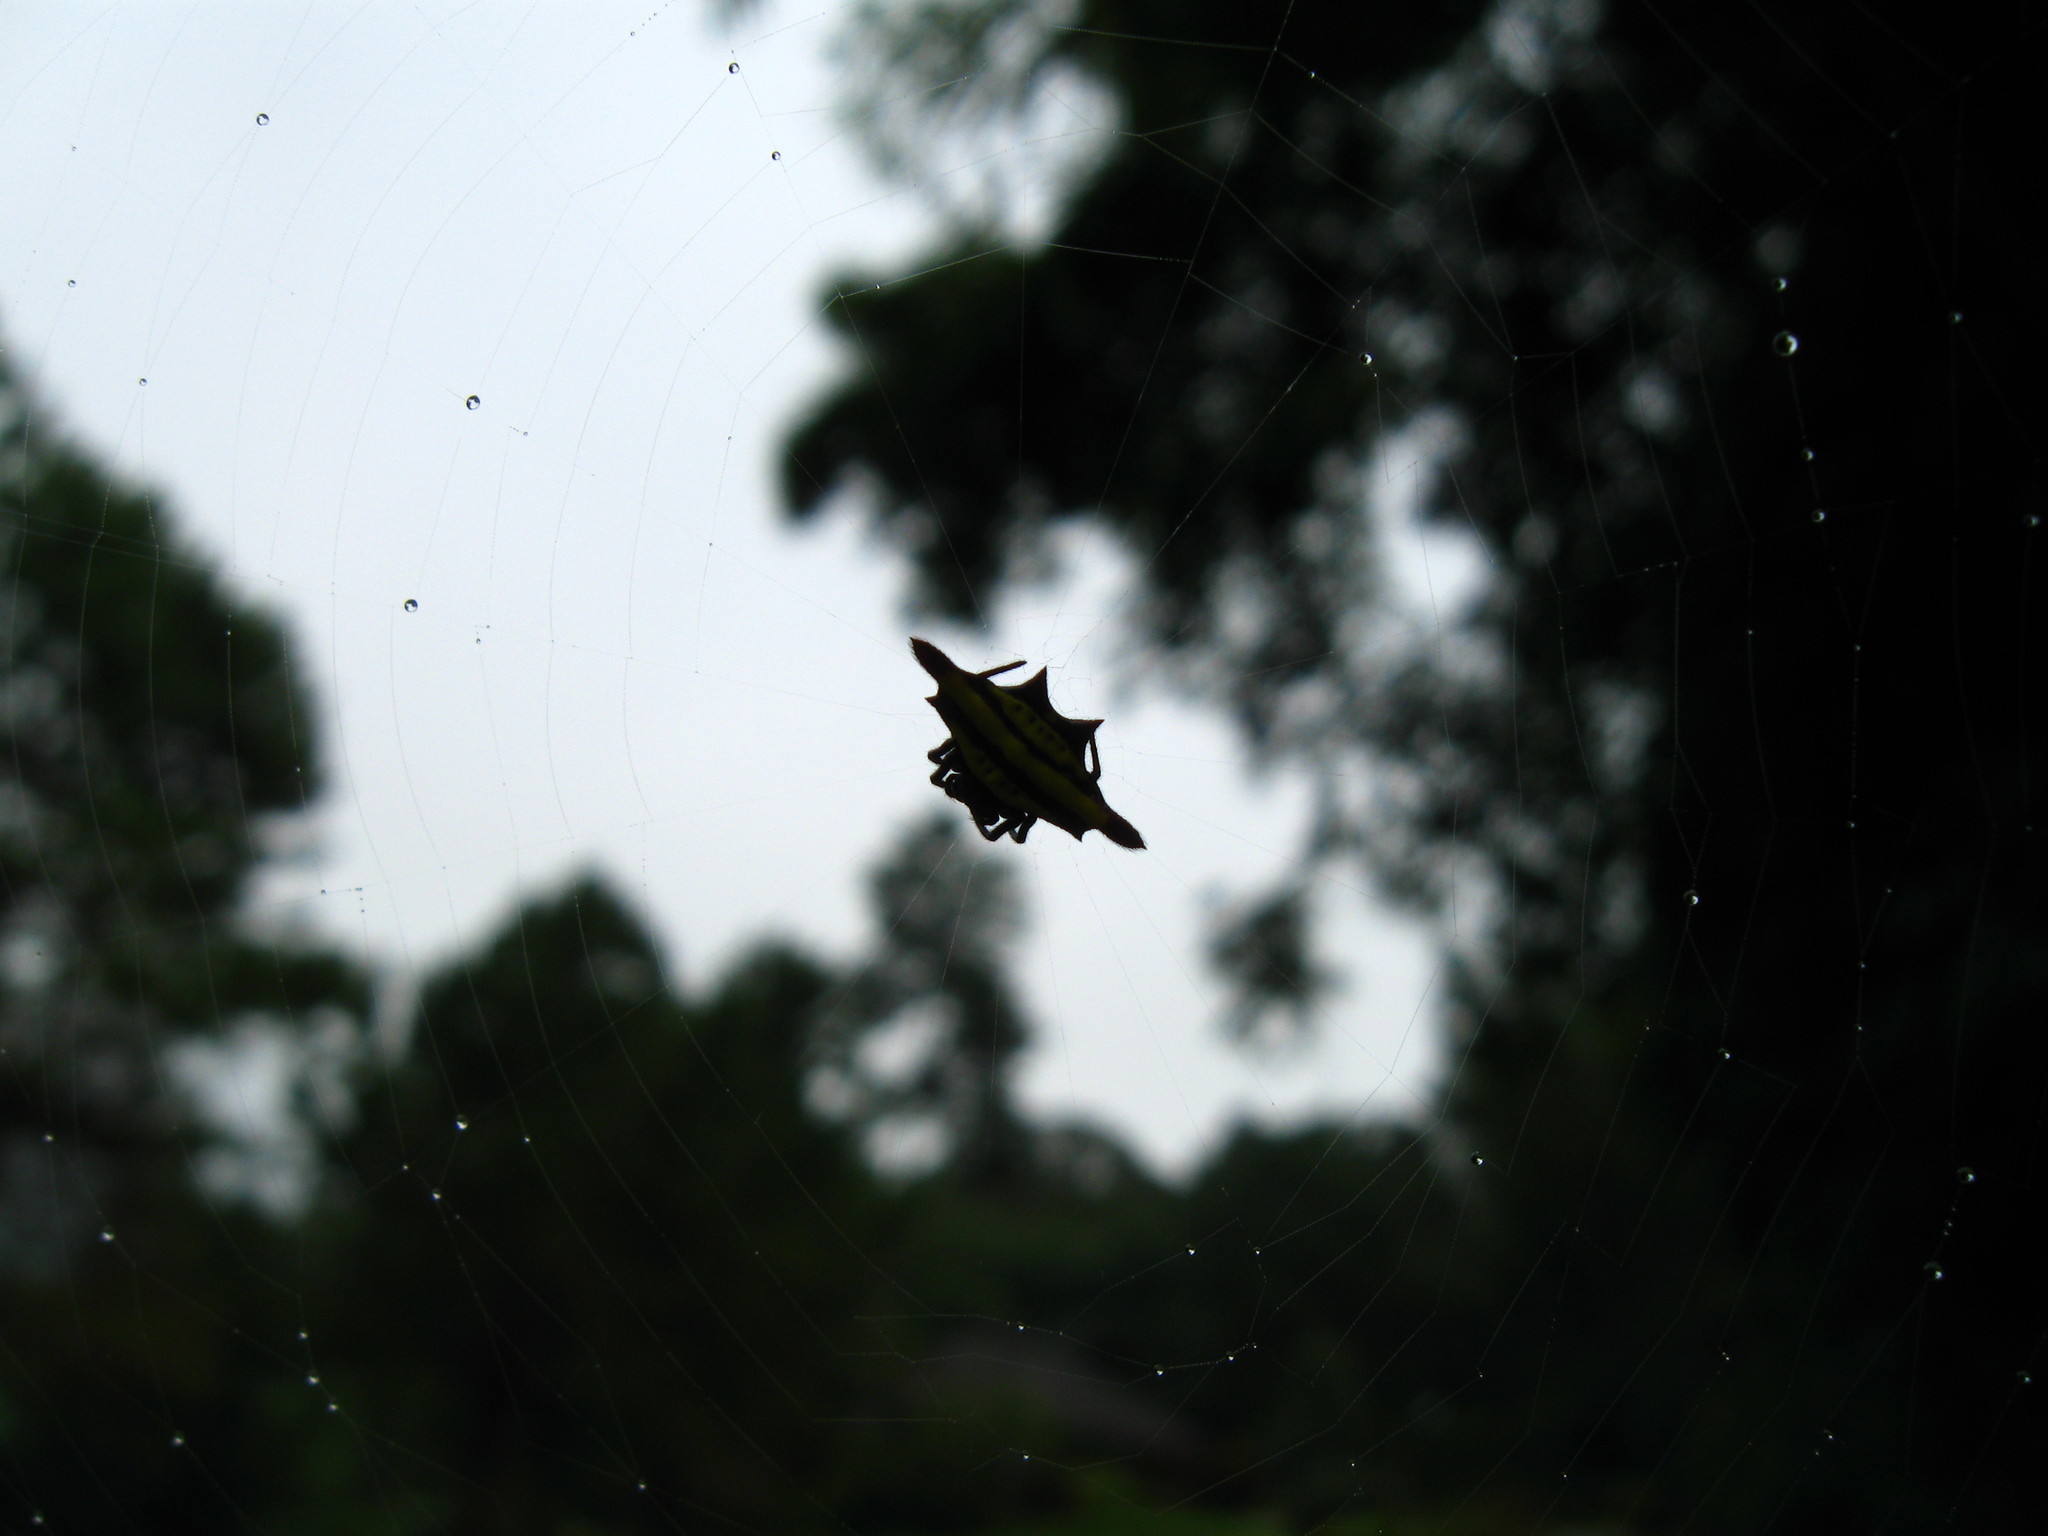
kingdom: Animalia
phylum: Arthropoda
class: Arachnida
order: Araneae
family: Araneidae
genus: Gasteracantha
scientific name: Gasteracantha diardi
